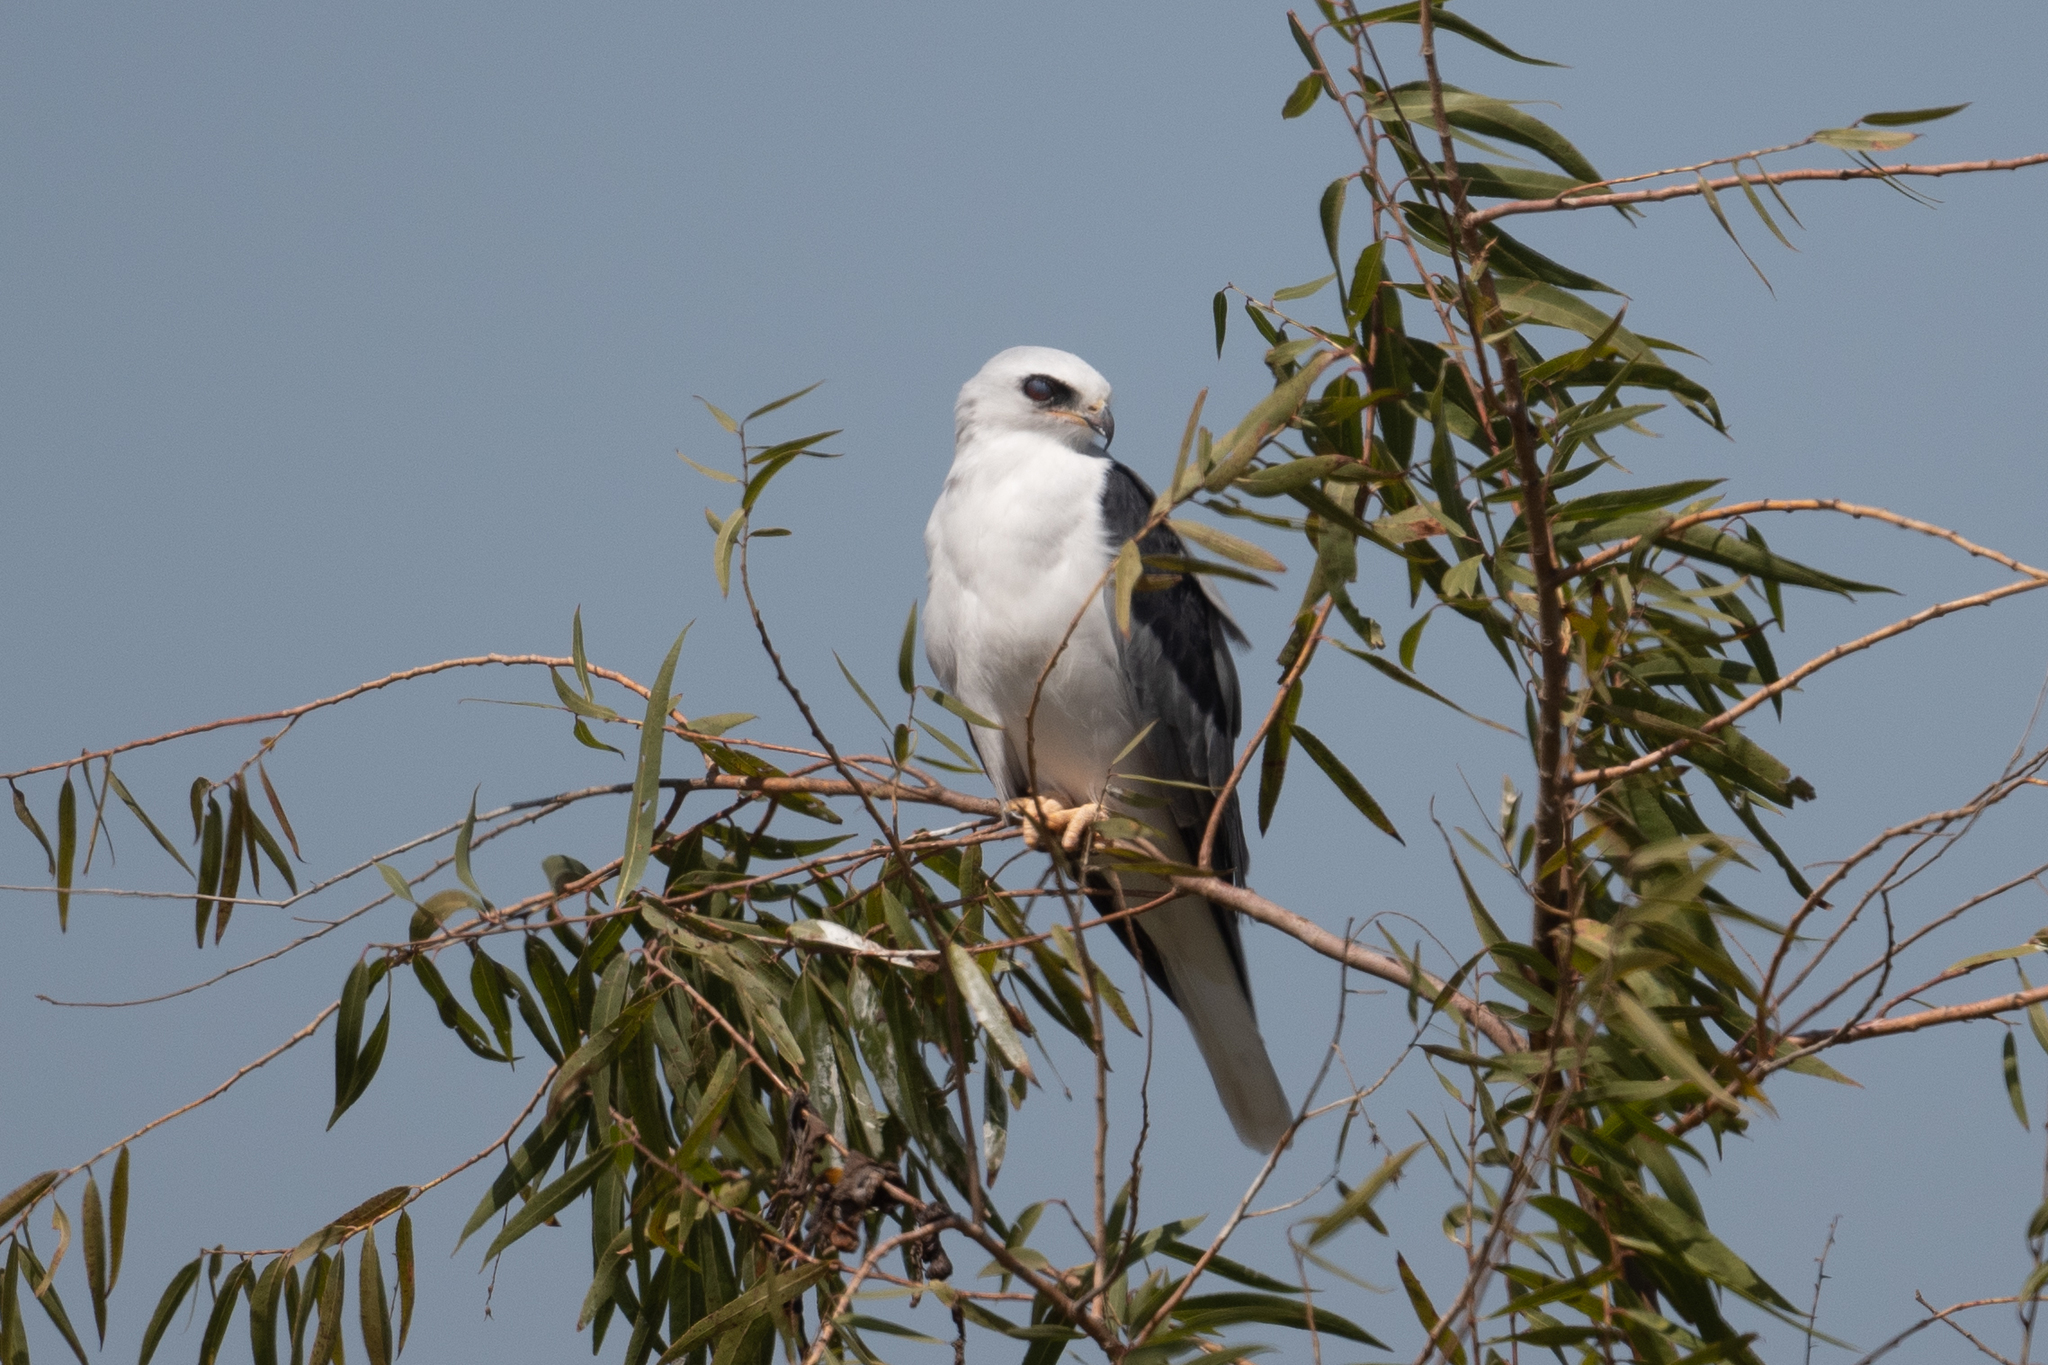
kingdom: Animalia
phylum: Chordata
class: Aves
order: Accipitriformes
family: Accipitridae
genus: Elanus
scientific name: Elanus leucurus
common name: White-tailed kite
